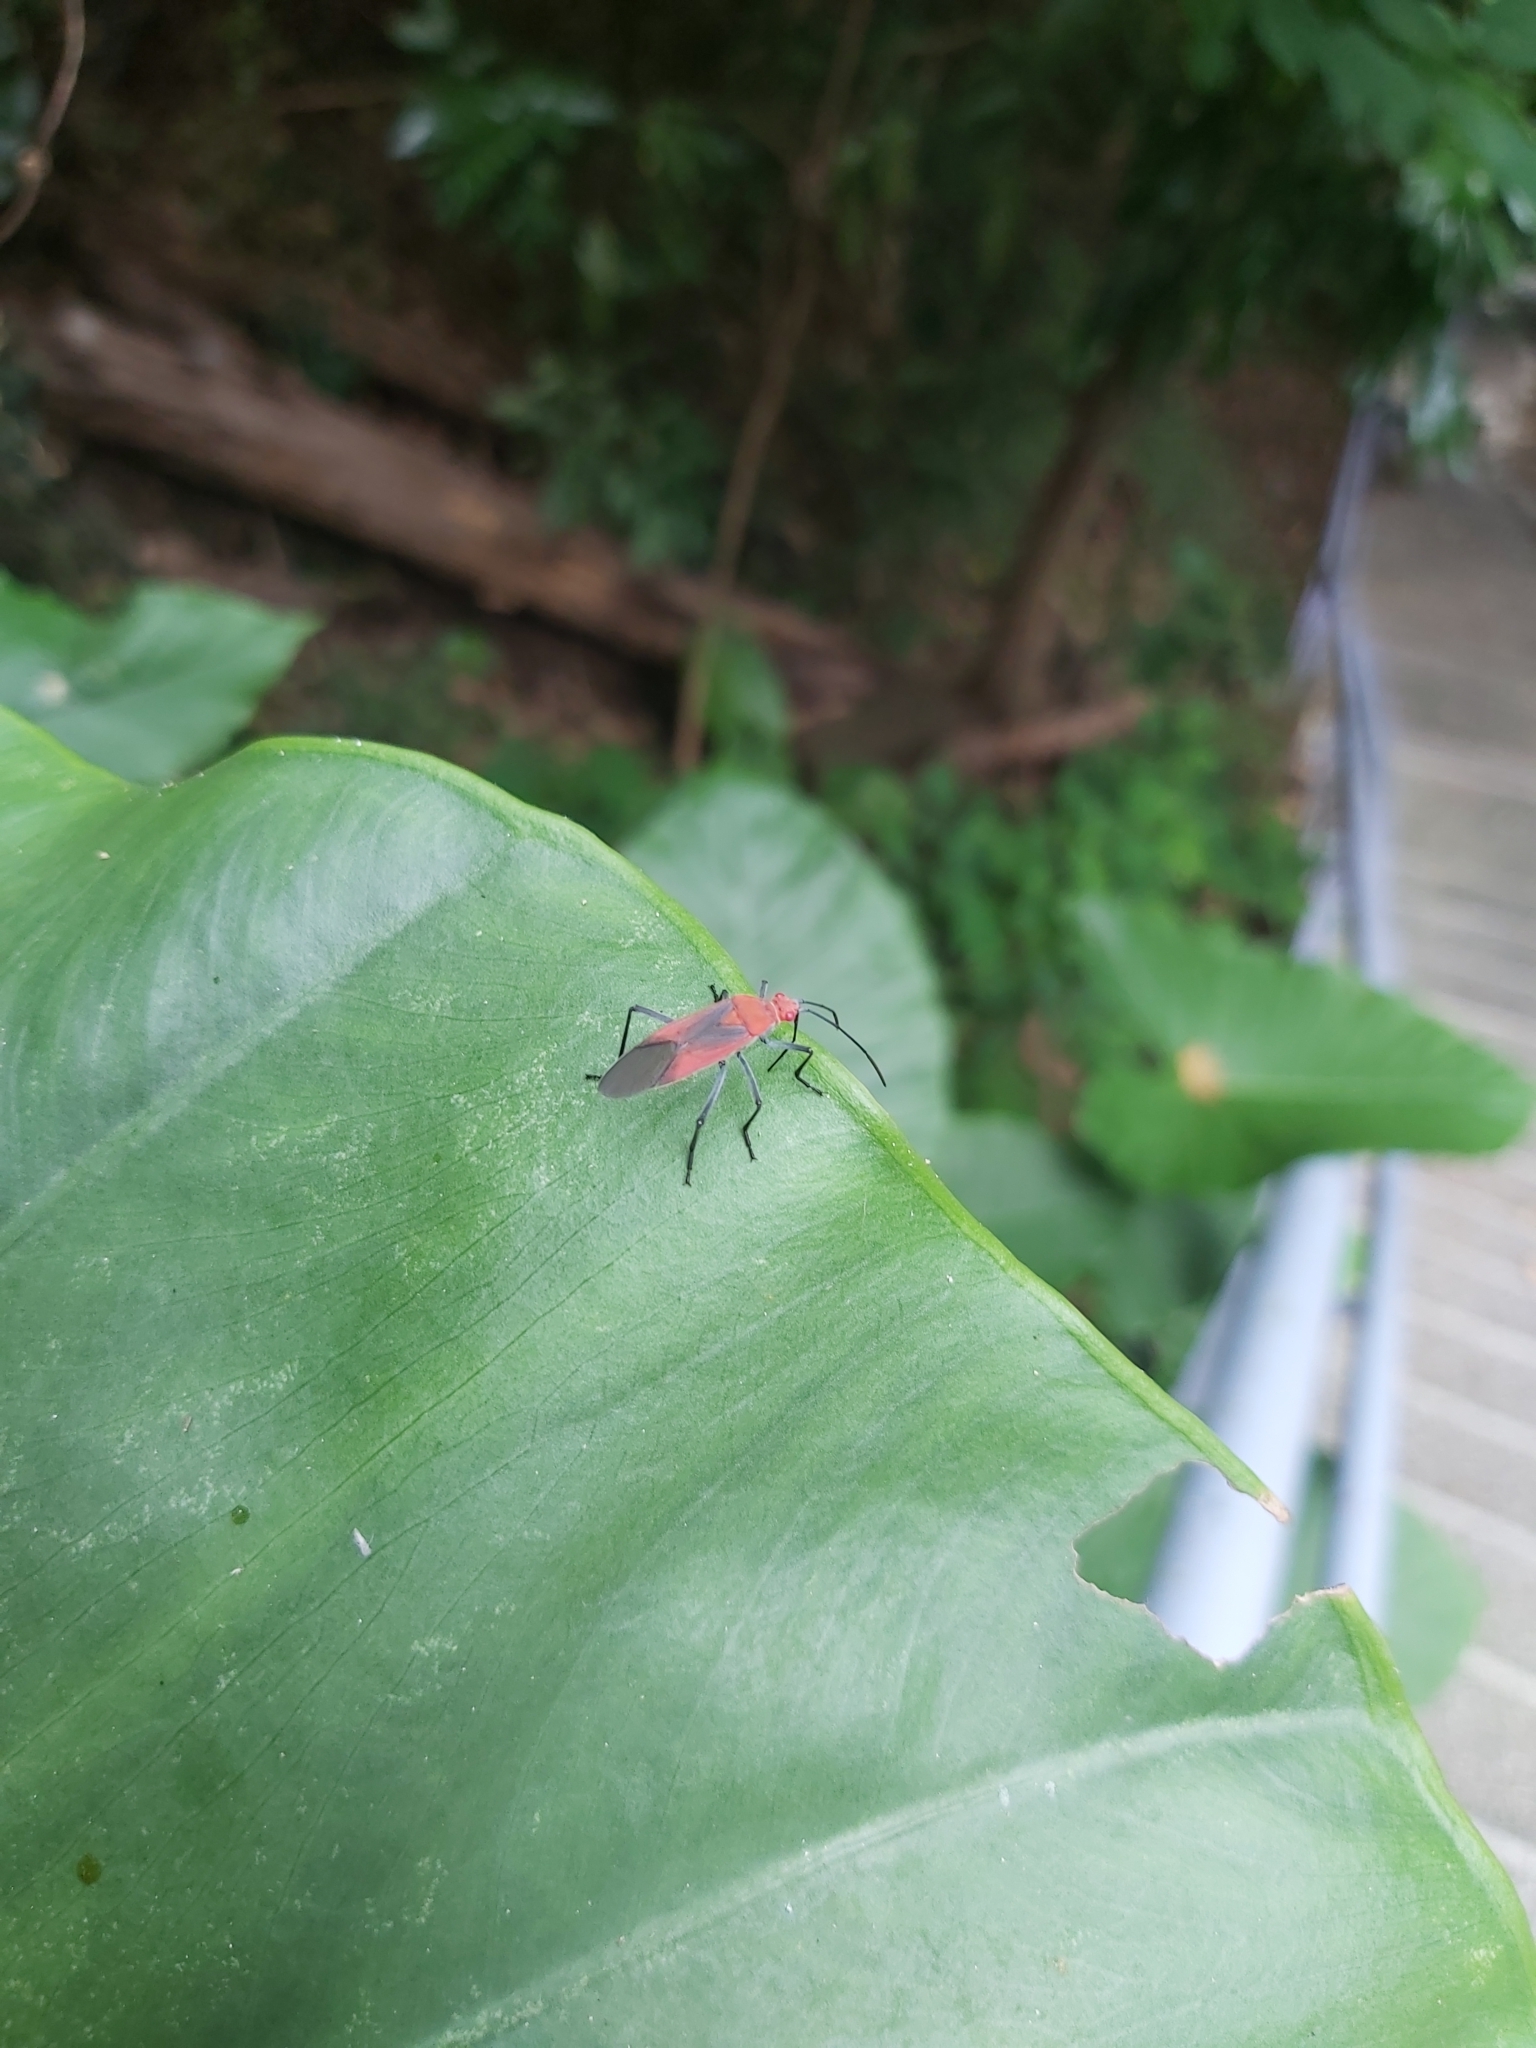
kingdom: Animalia
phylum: Arthropoda
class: Insecta
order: Hemiptera
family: Rhopalidae
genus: Leptocoris
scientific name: Leptocoris vicinus
